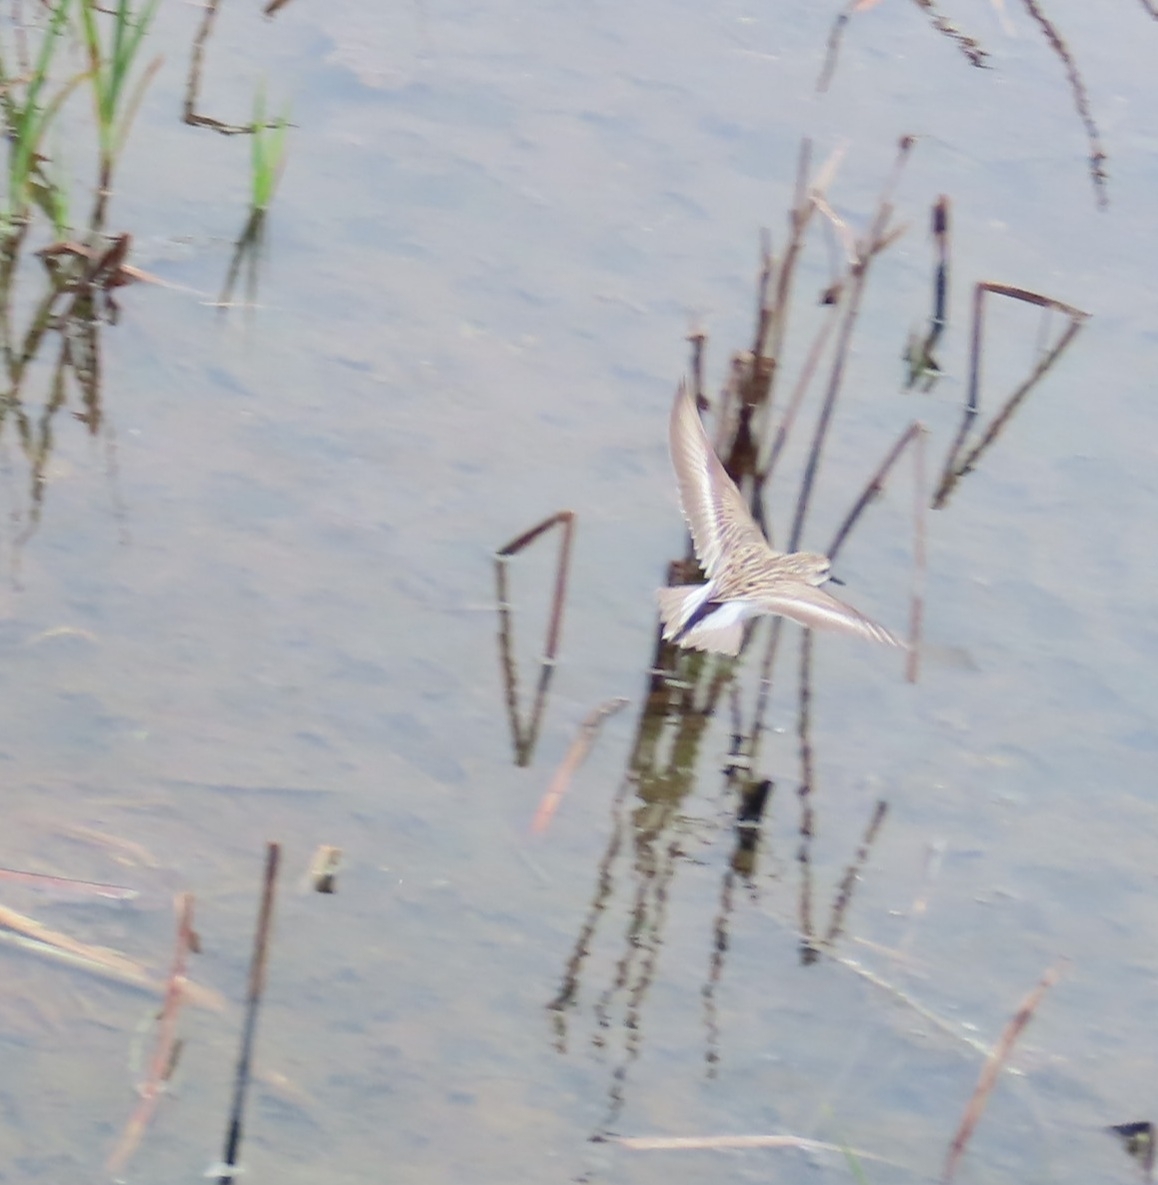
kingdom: Animalia
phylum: Chordata
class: Aves
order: Charadriiformes
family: Scolopacidae
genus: Calidris
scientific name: Calidris pusilla
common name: Semipalmated sandpiper
